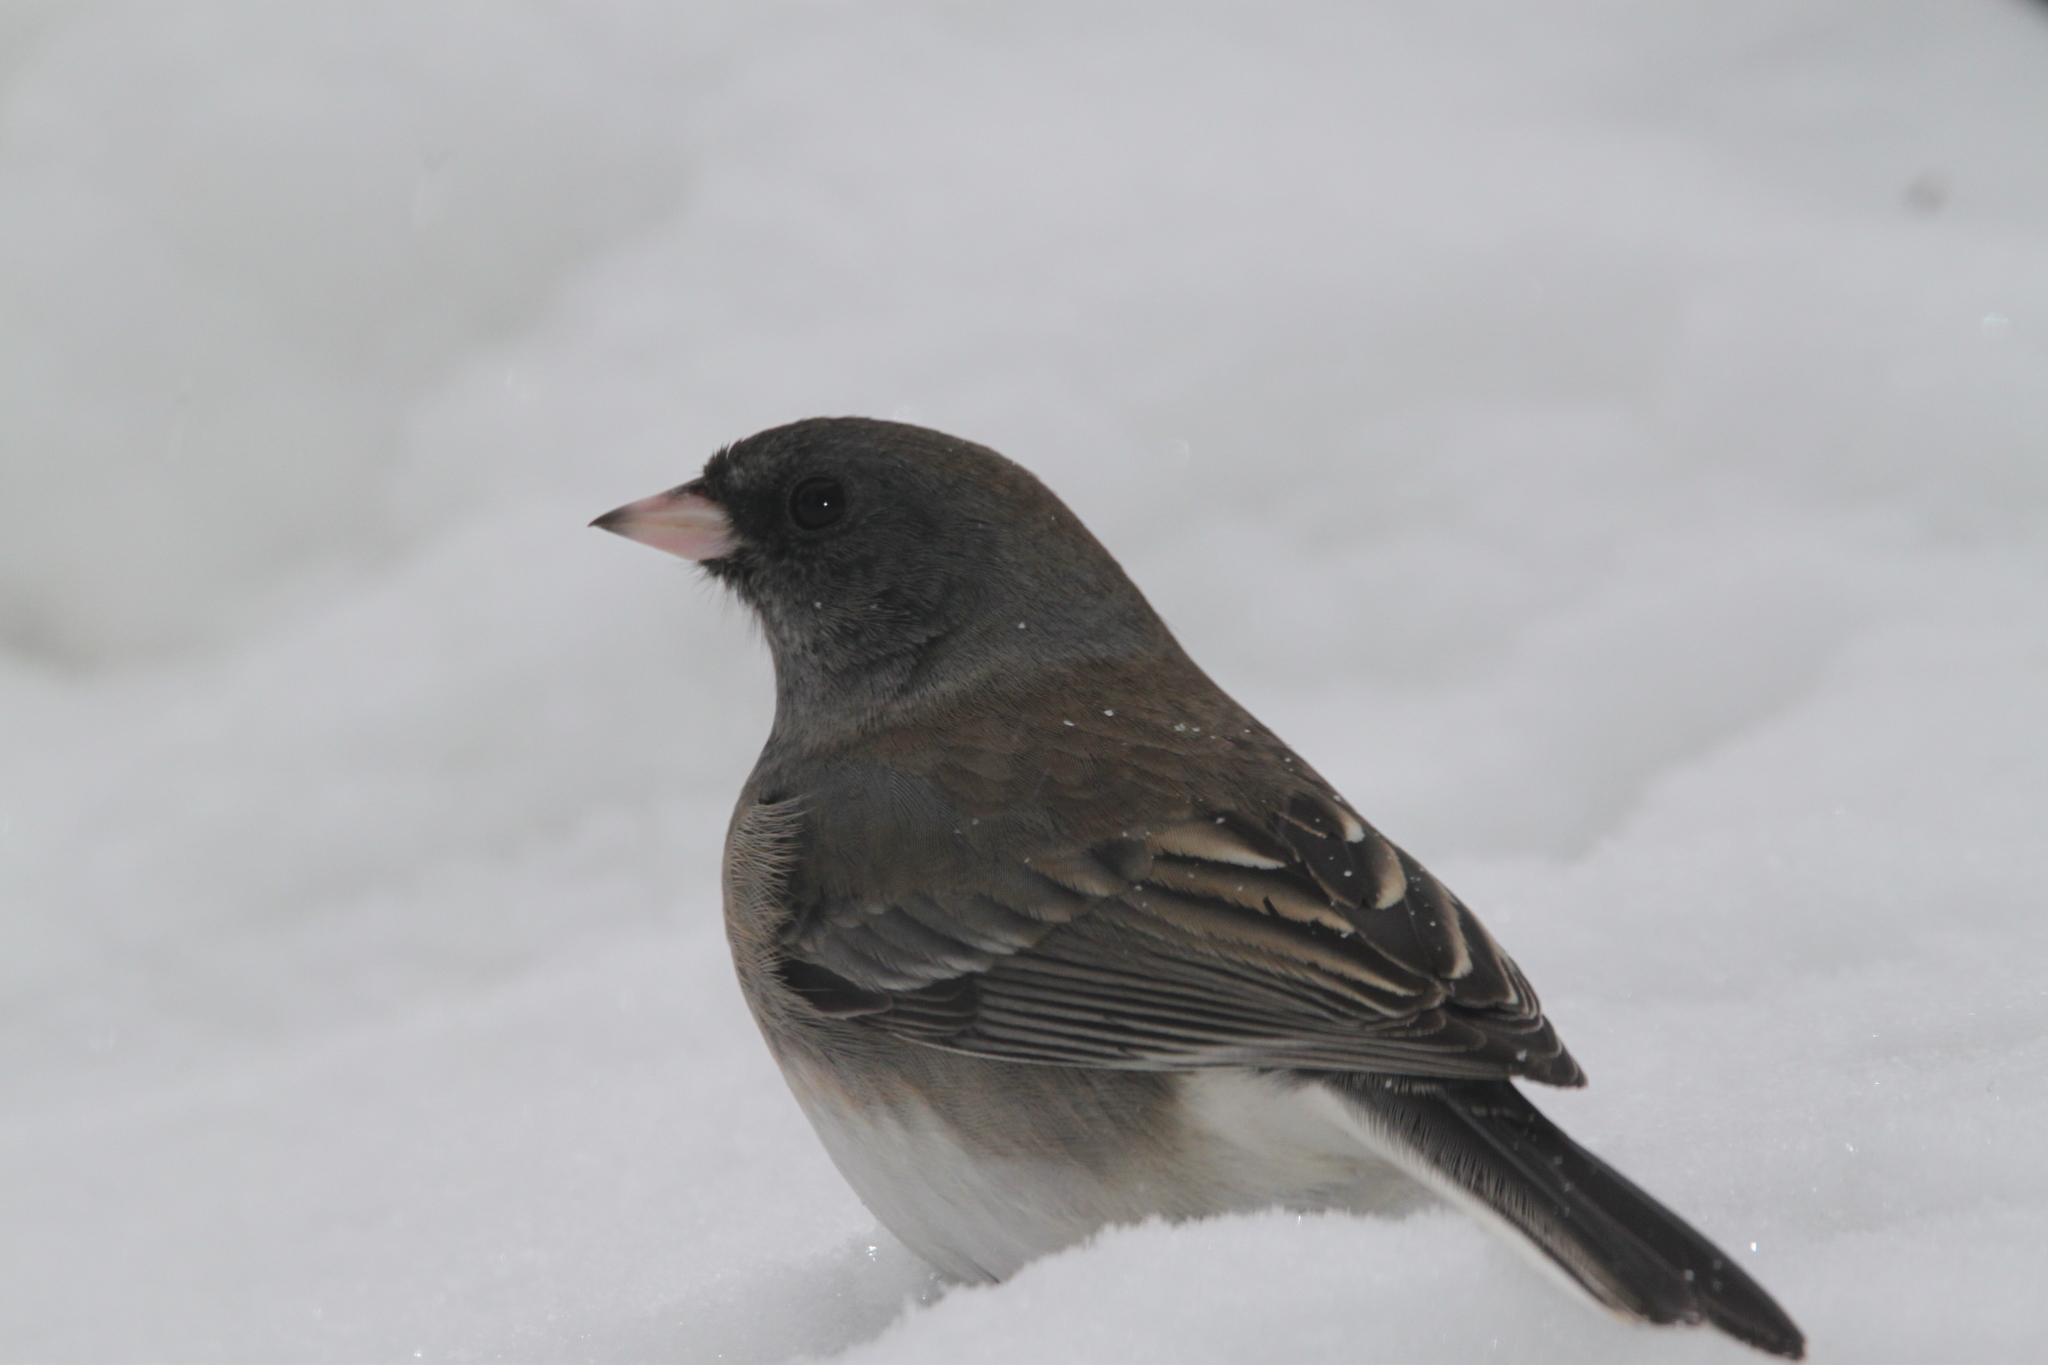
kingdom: Animalia
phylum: Chordata
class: Aves
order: Passeriformes
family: Passerellidae
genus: Junco
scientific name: Junco hyemalis
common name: Dark-eyed junco
